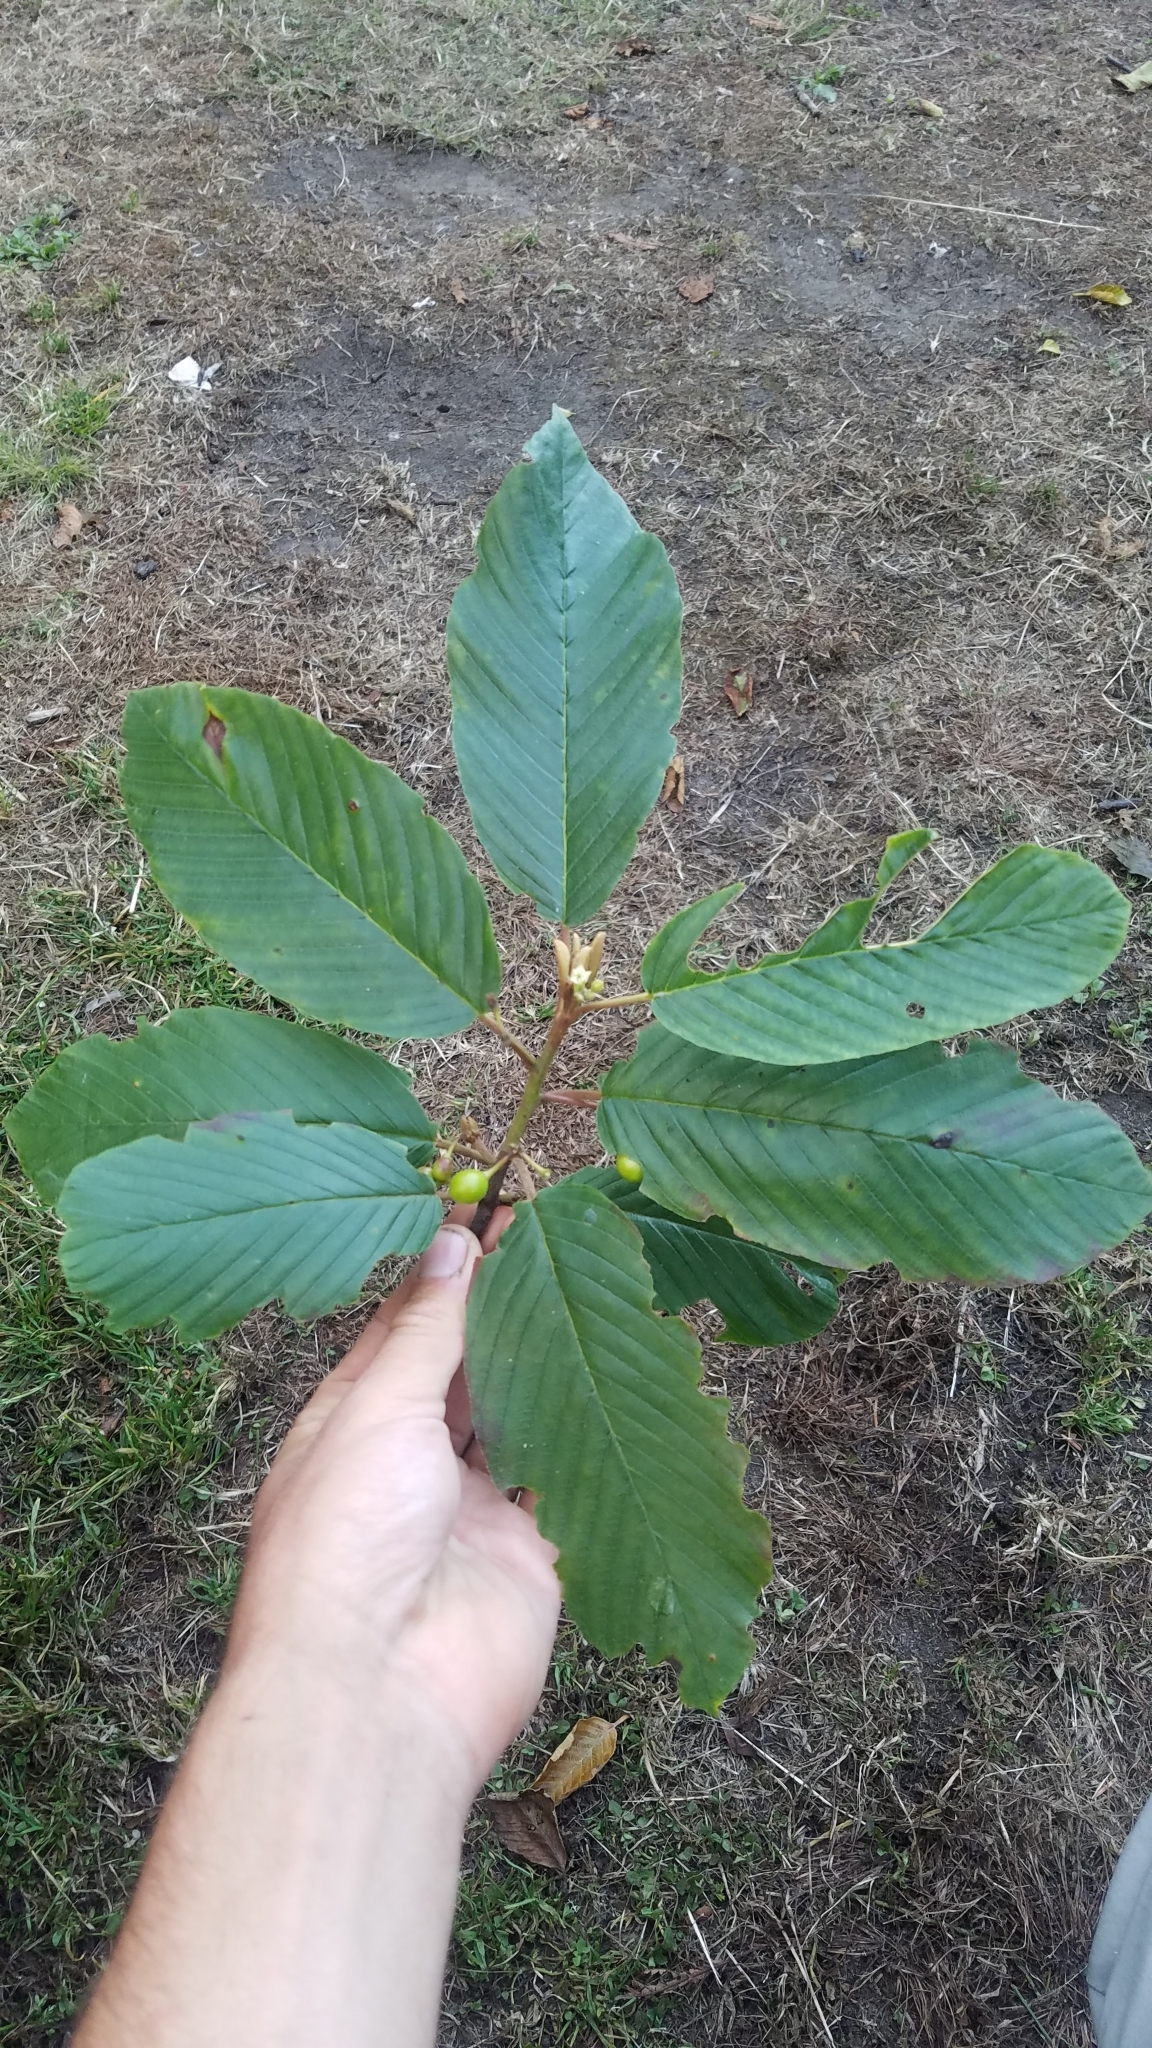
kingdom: Plantae
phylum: Tracheophyta
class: Magnoliopsida
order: Rosales
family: Rhamnaceae
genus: Frangula
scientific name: Frangula purshiana
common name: Cascara buckthorn
